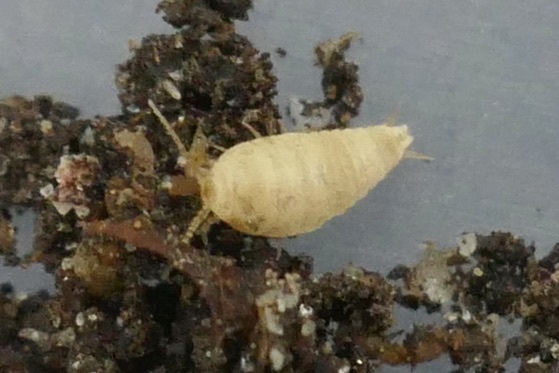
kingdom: Animalia
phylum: Arthropoda
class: Insecta
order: Zygentoma
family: Nicoletiidae
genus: Atelura
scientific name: Atelura formicaria
